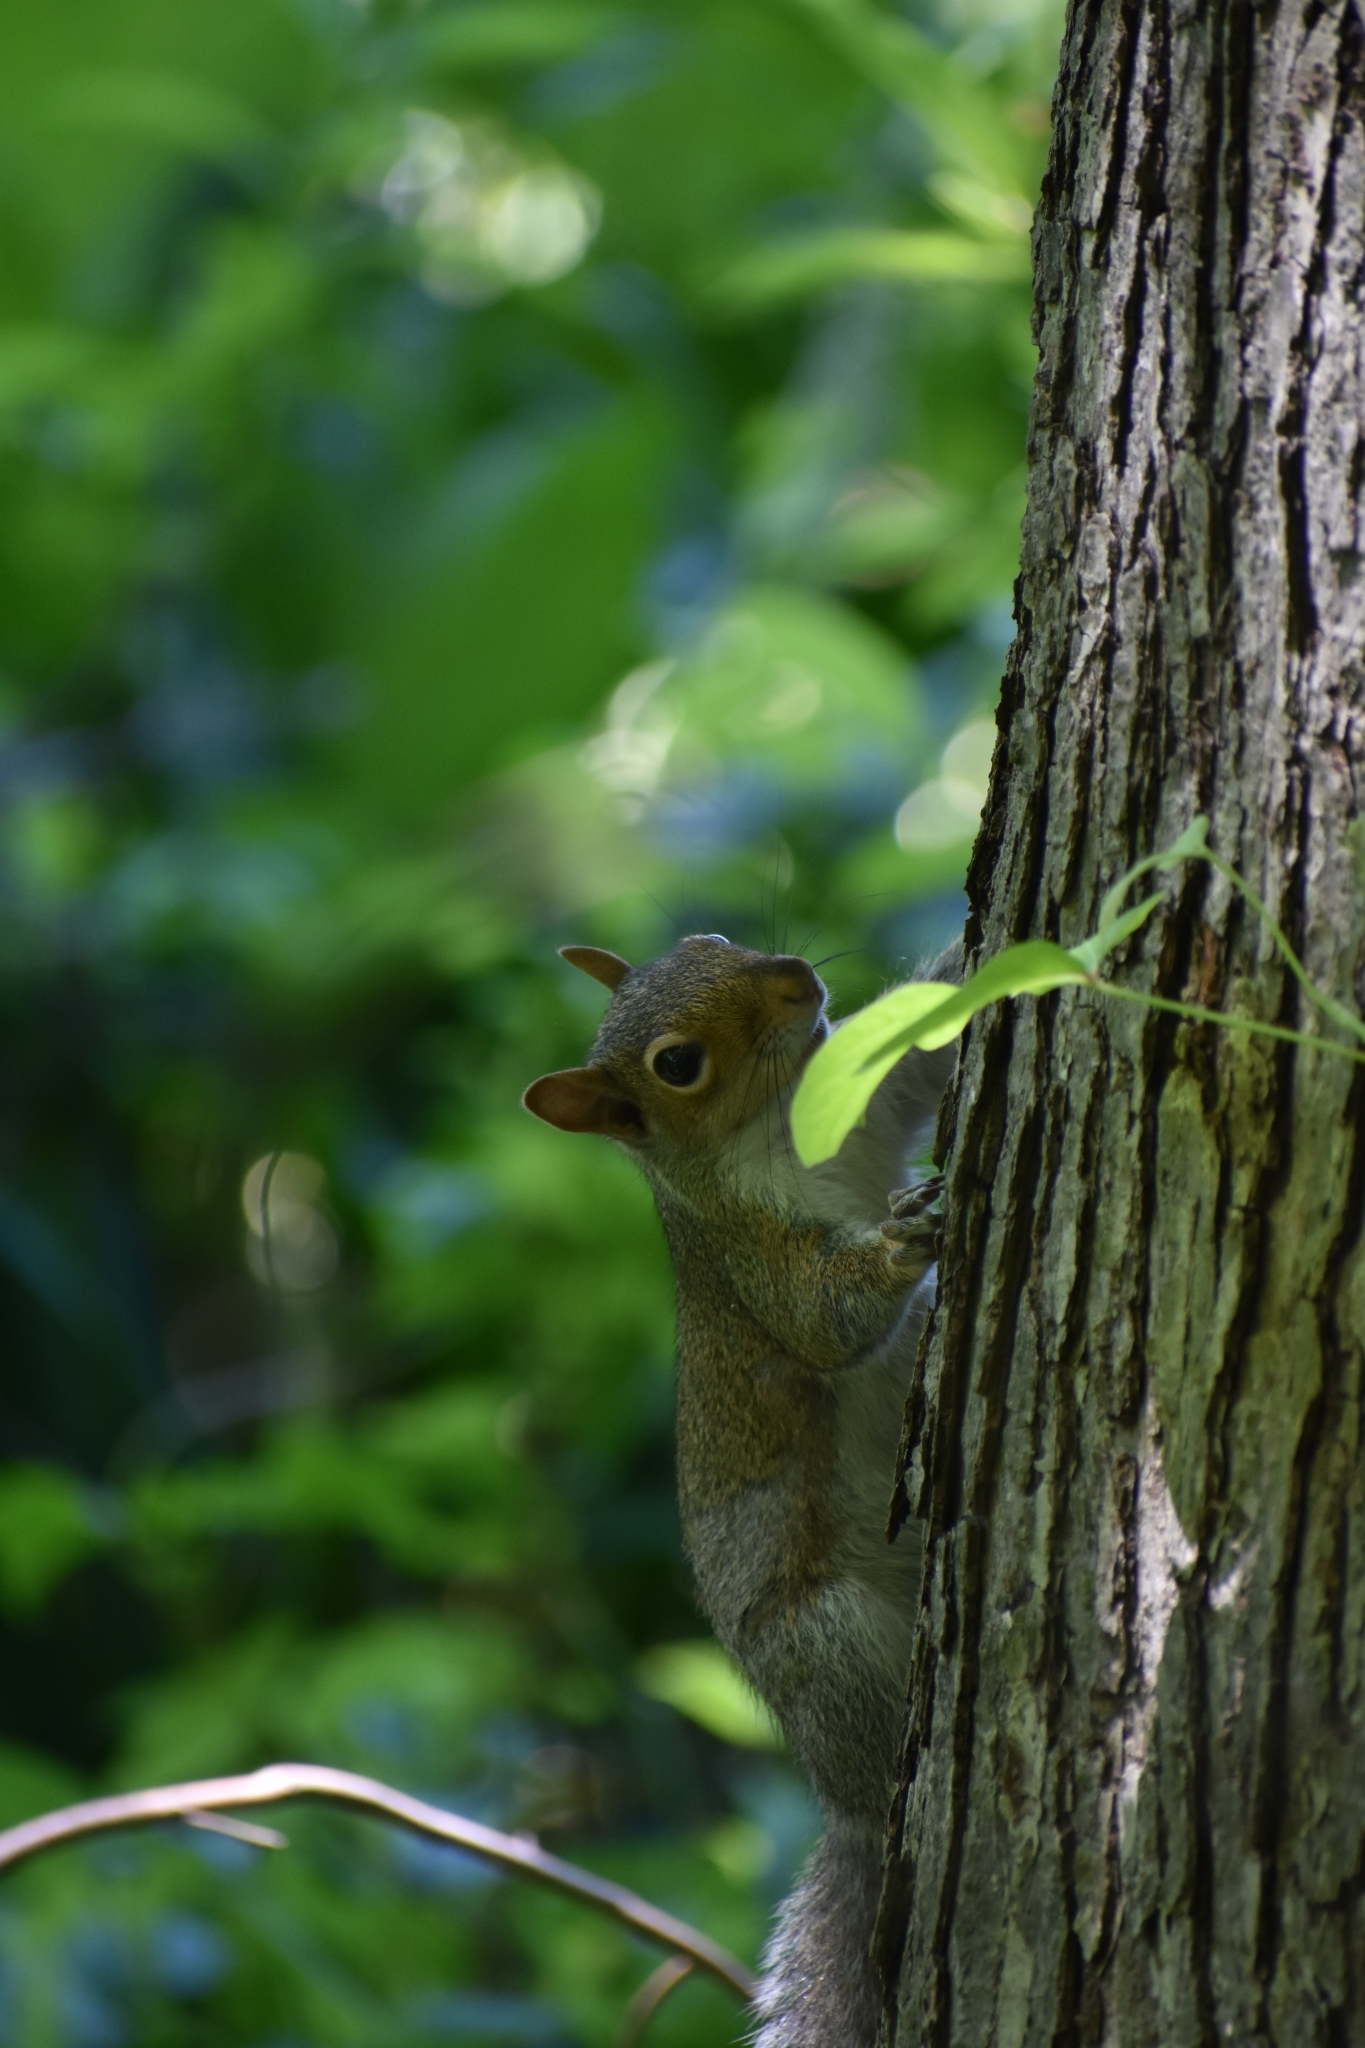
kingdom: Animalia
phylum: Chordata
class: Mammalia
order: Rodentia
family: Sciuridae
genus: Sciurus
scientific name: Sciurus carolinensis
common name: Eastern gray squirrel
